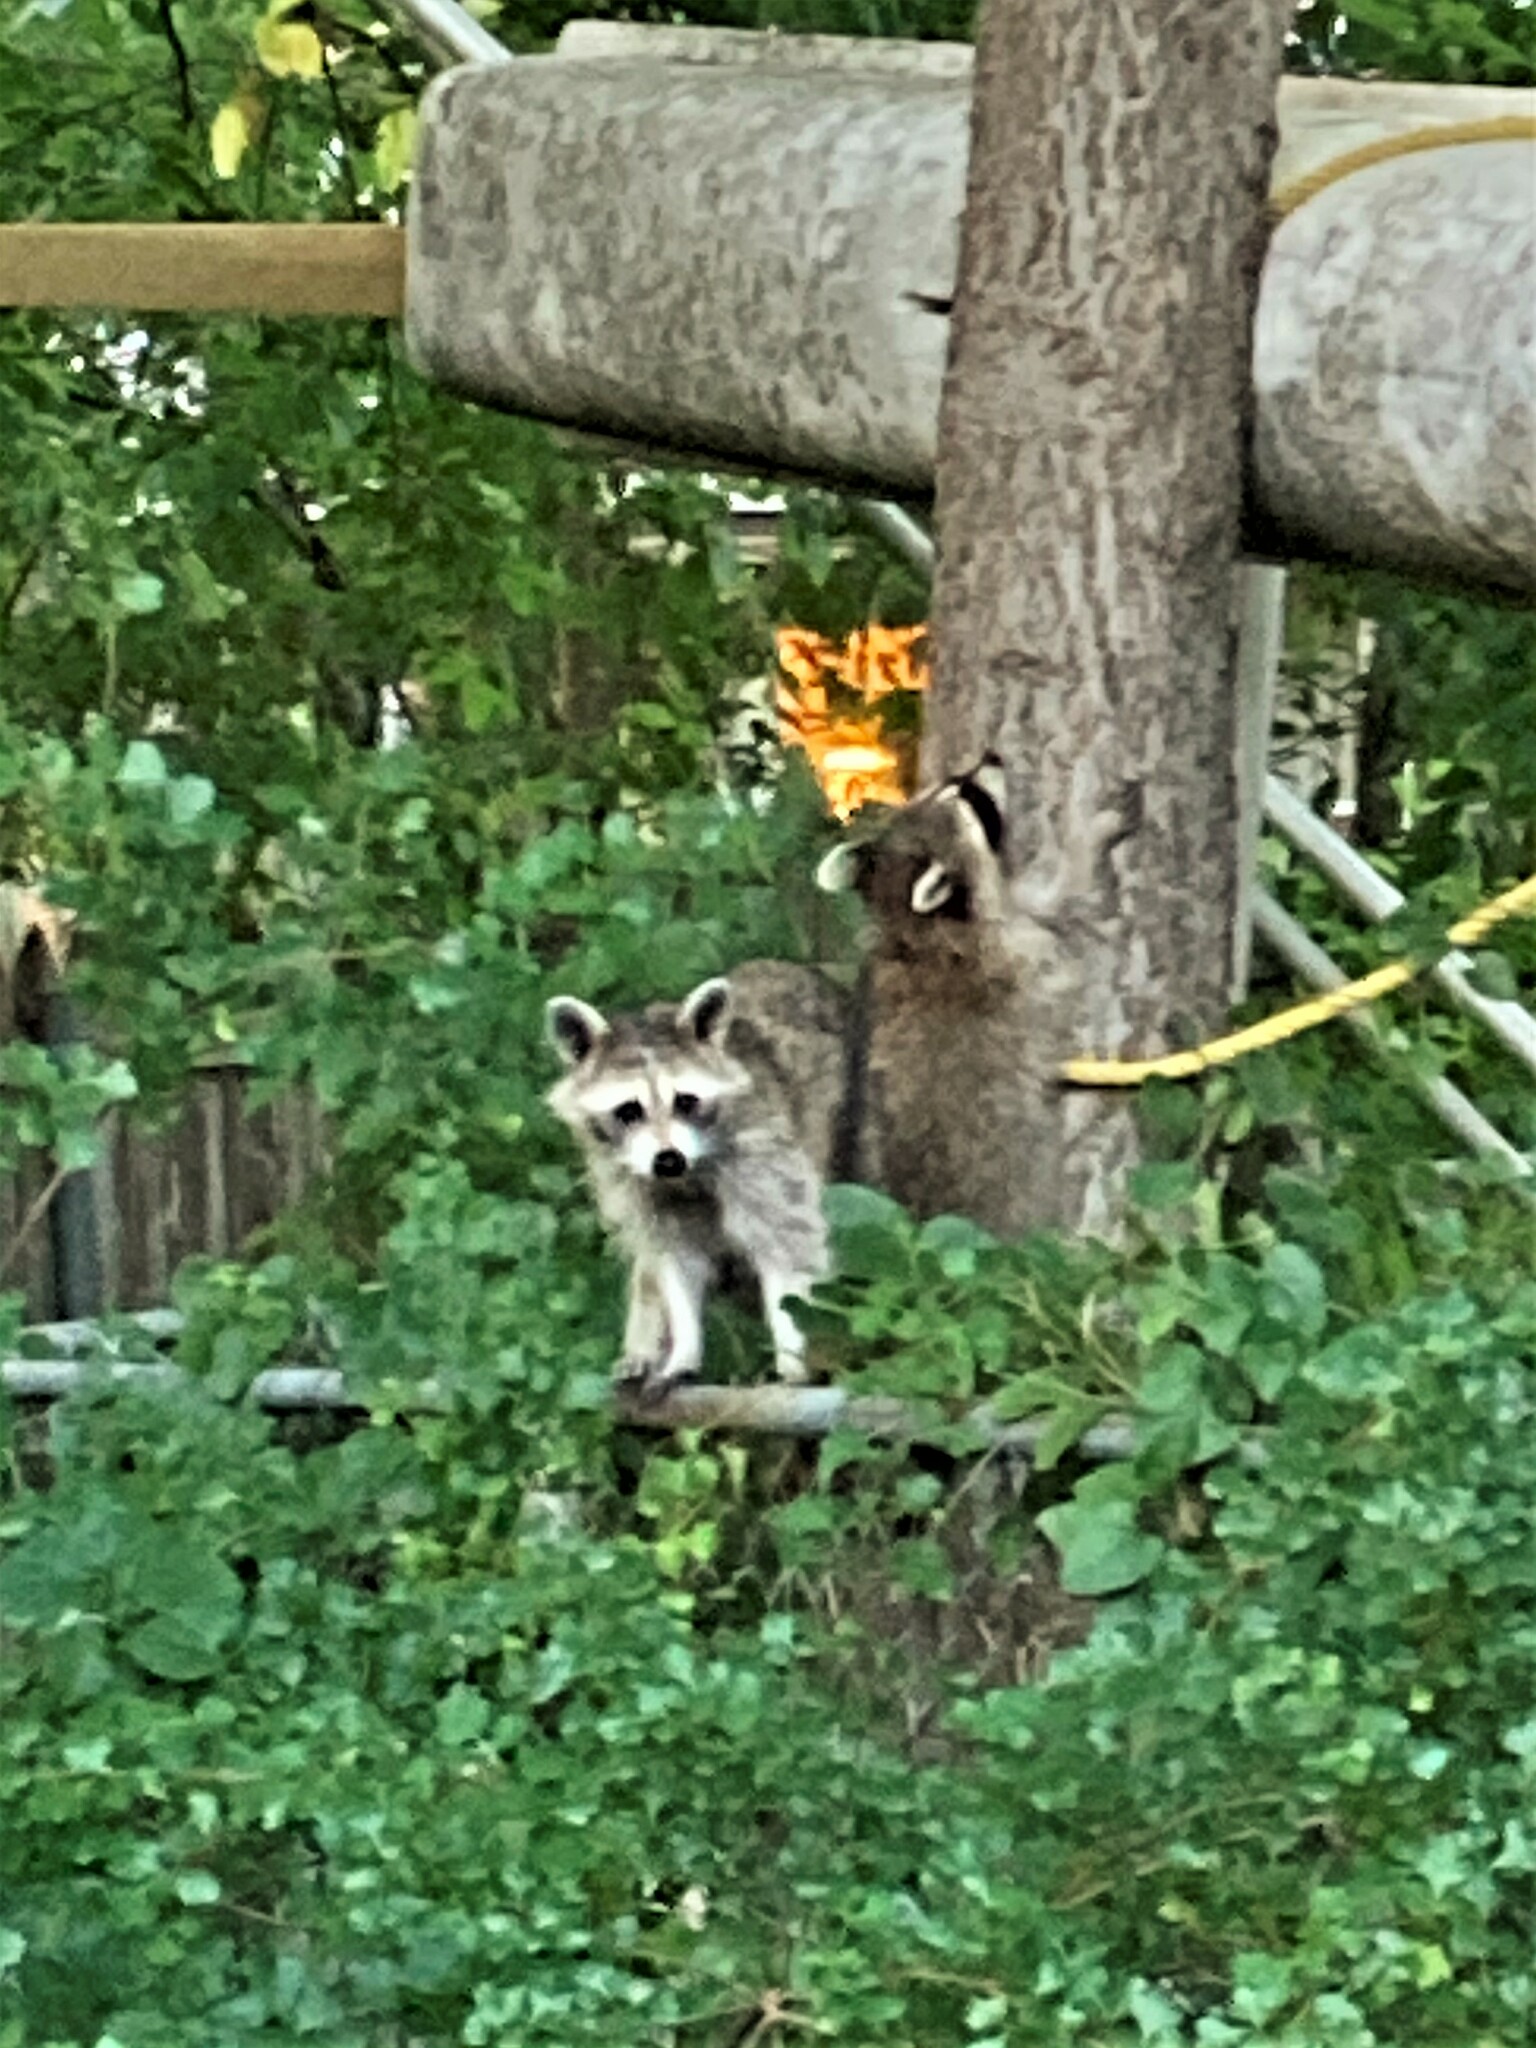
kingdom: Animalia
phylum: Chordata
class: Mammalia
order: Carnivora
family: Procyonidae
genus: Procyon
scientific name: Procyon lotor
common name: Raccoon
